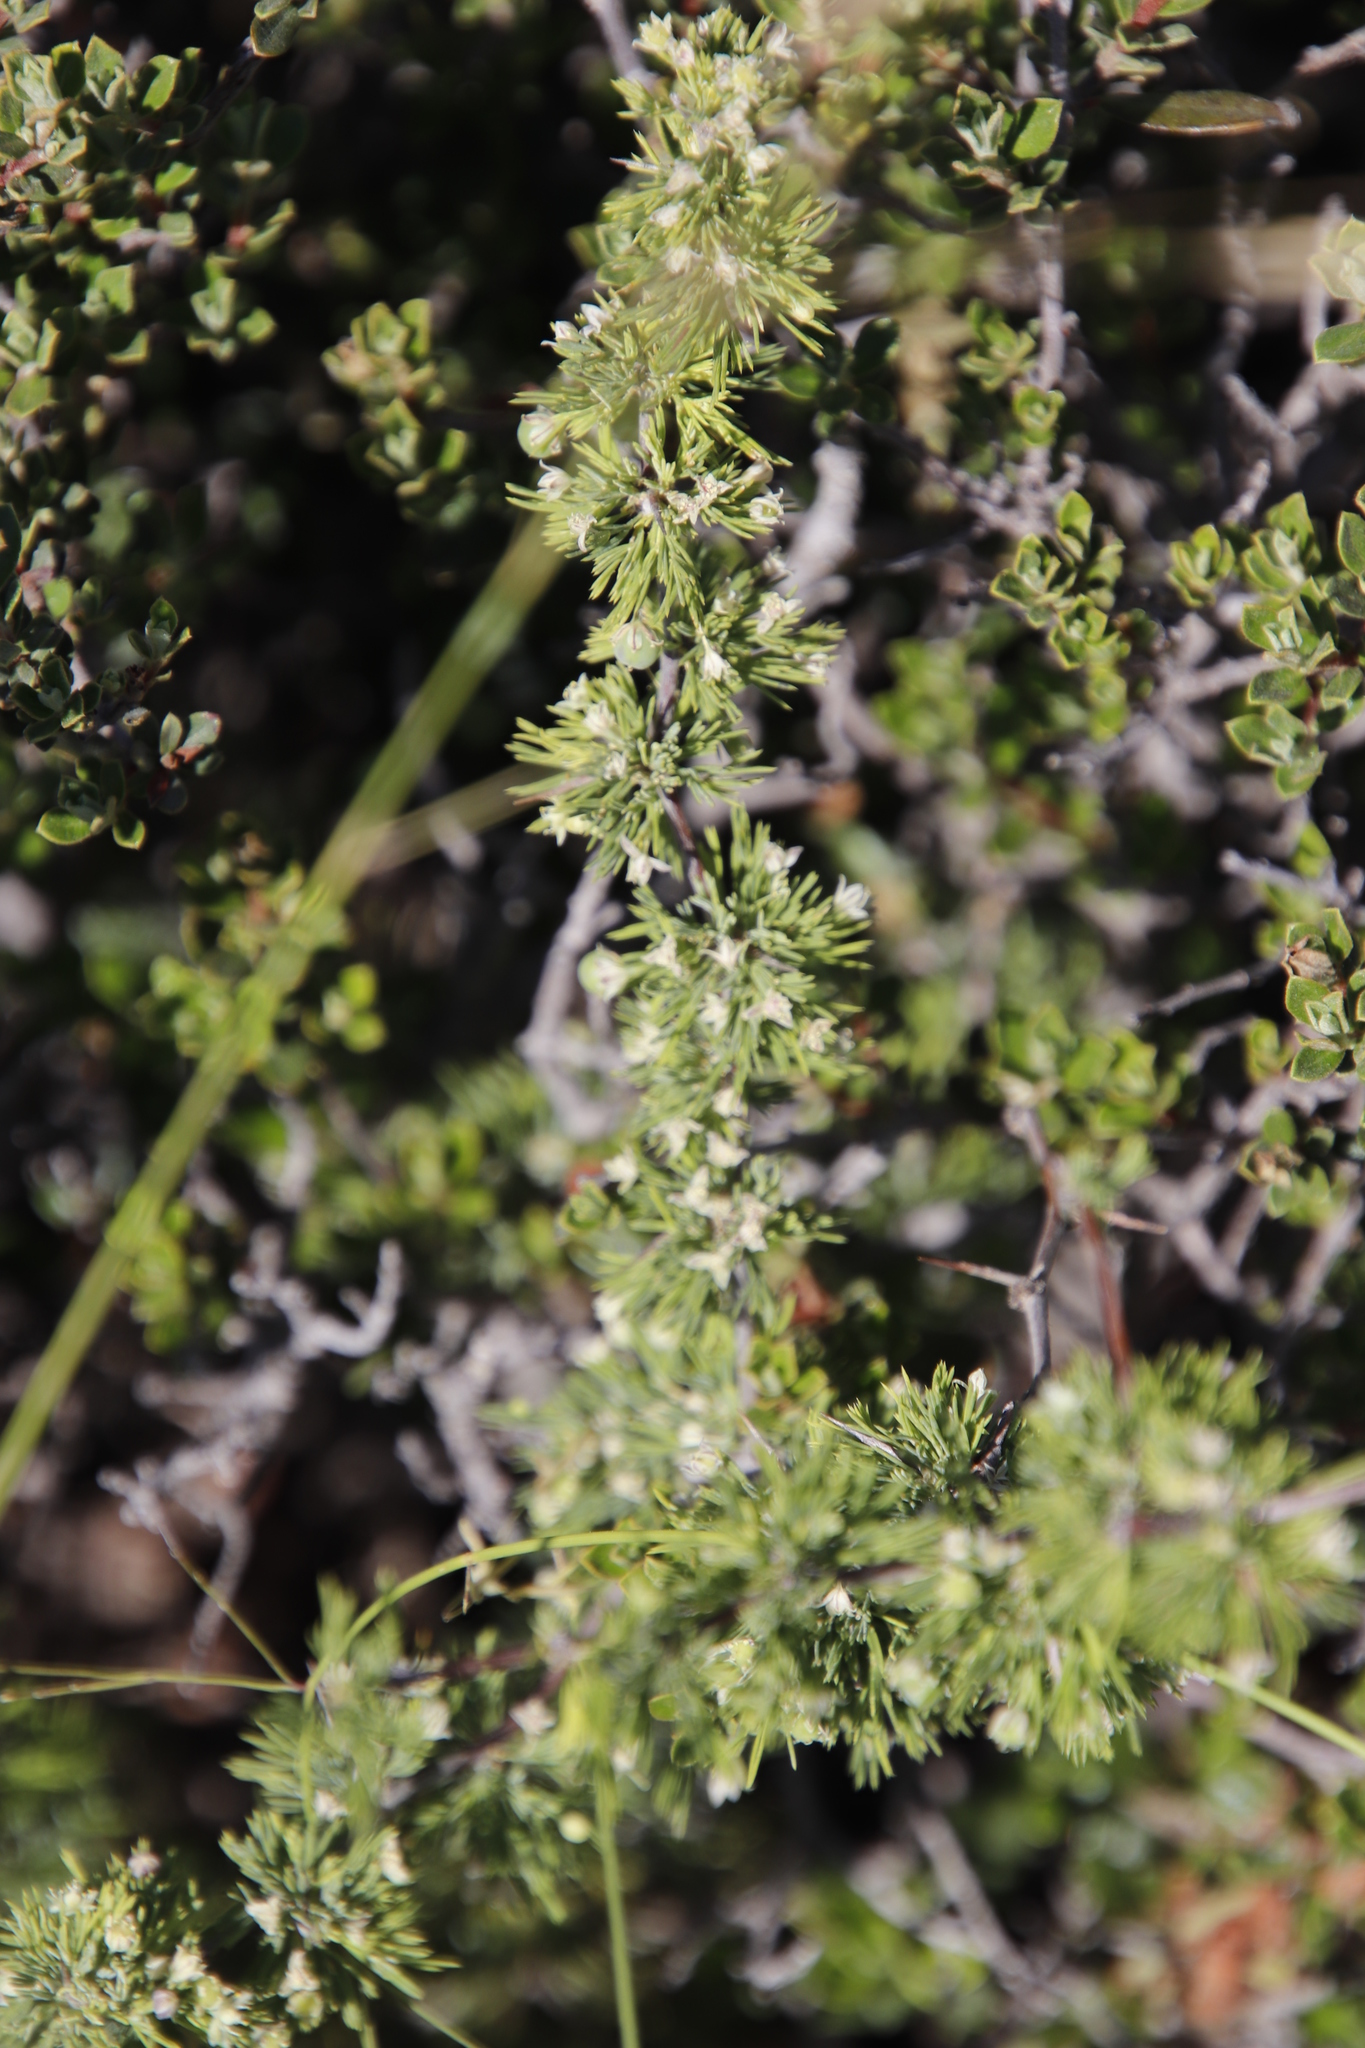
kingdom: Plantae
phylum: Tracheophyta
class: Liliopsida
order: Asparagales
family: Asparagaceae
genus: Asparagus
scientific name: Asparagus spinescens
